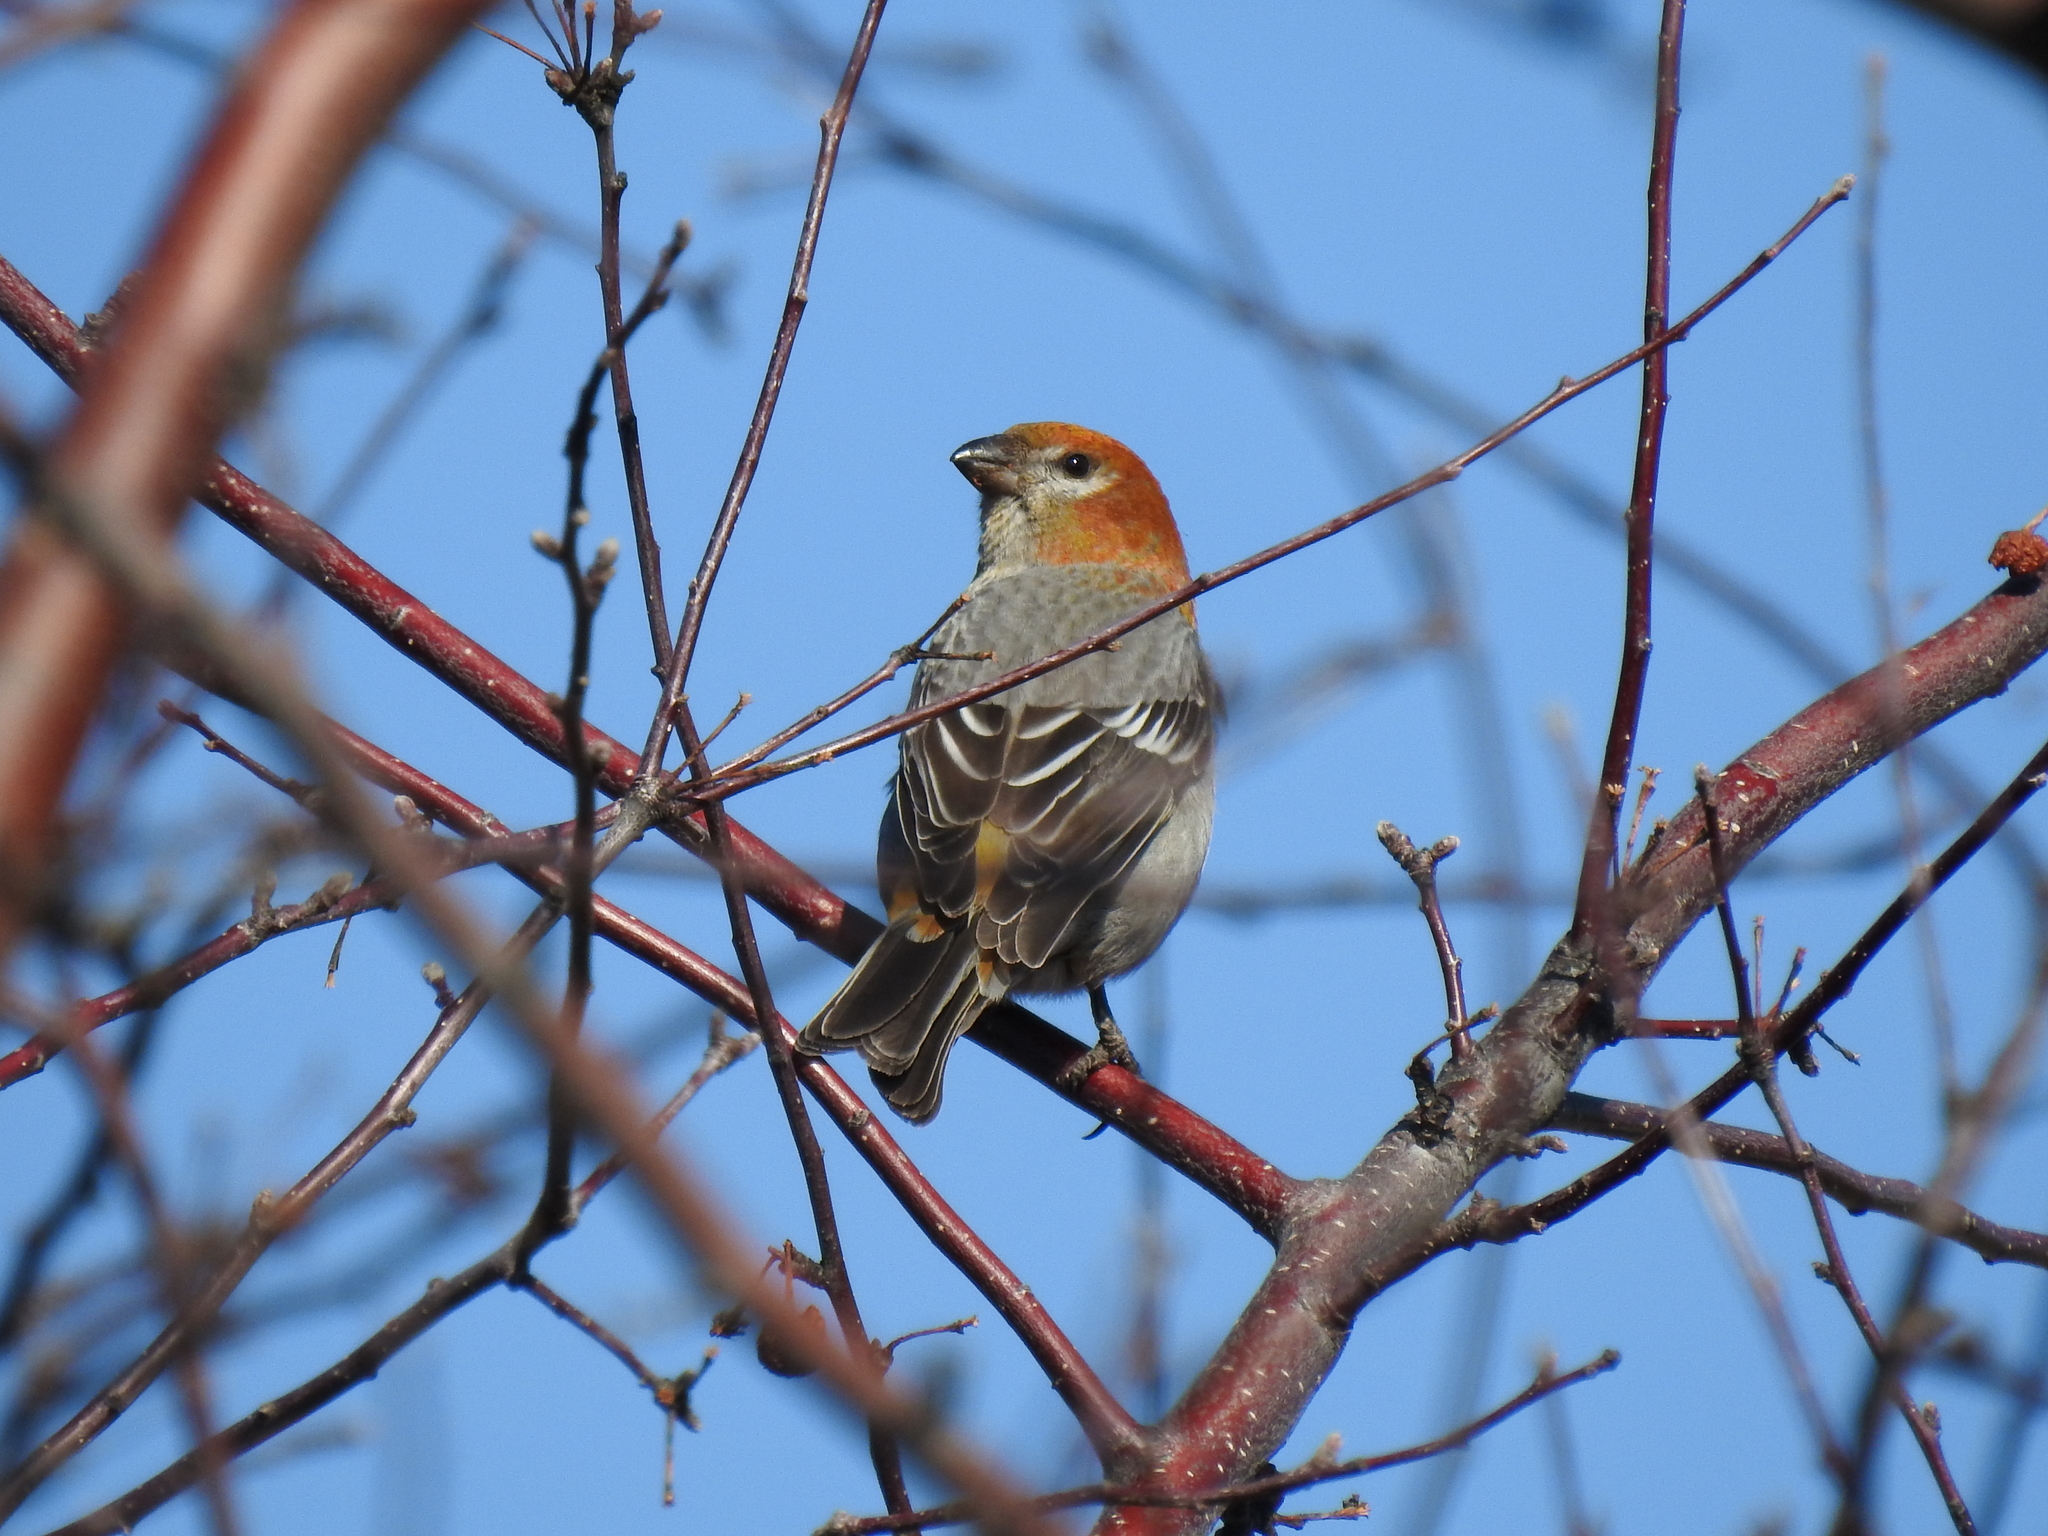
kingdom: Animalia
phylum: Chordata
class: Aves
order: Passeriformes
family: Fringillidae
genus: Pinicola
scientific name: Pinicola enucleator
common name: Pine grosbeak
